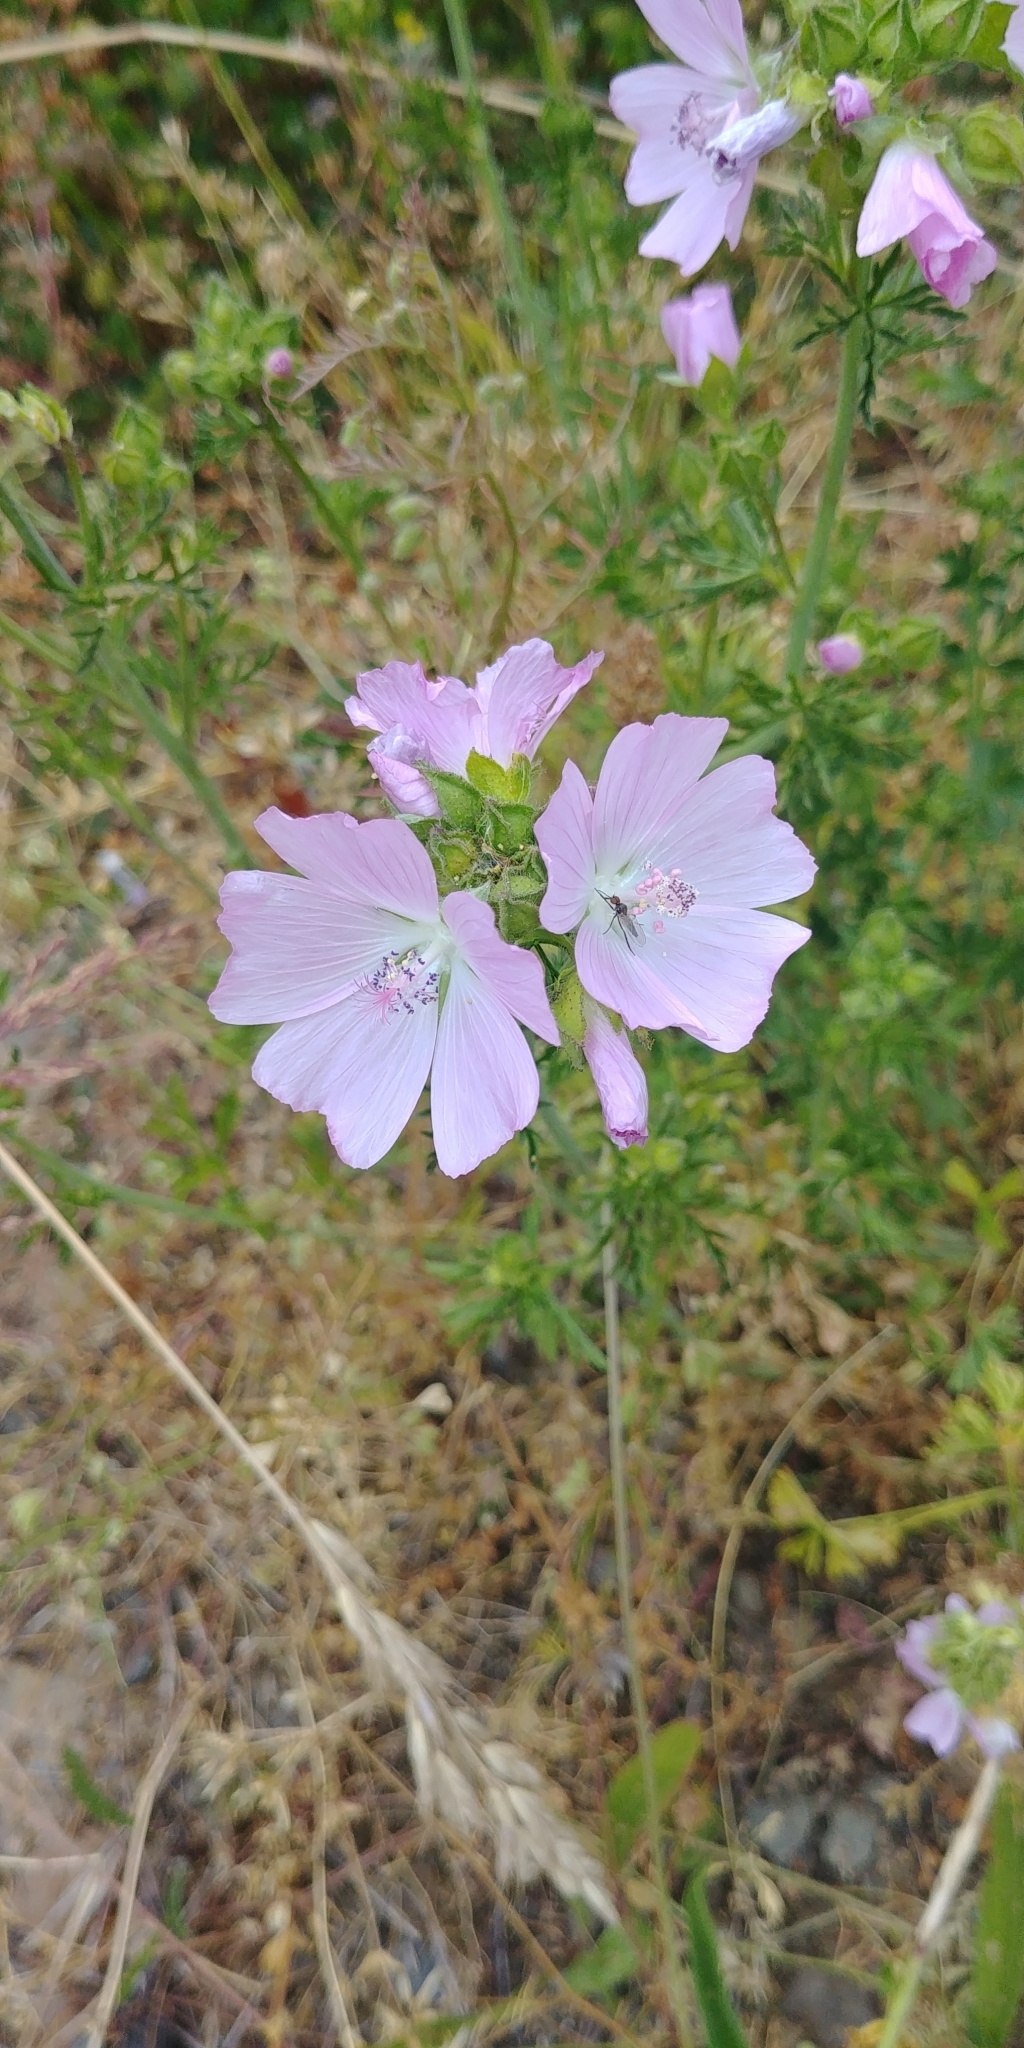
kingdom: Plantae
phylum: Tracheophyta
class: Magnoliopsida
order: Malvales
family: Malvaceae
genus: Malva
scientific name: Malva moschata
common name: Musk mallow
